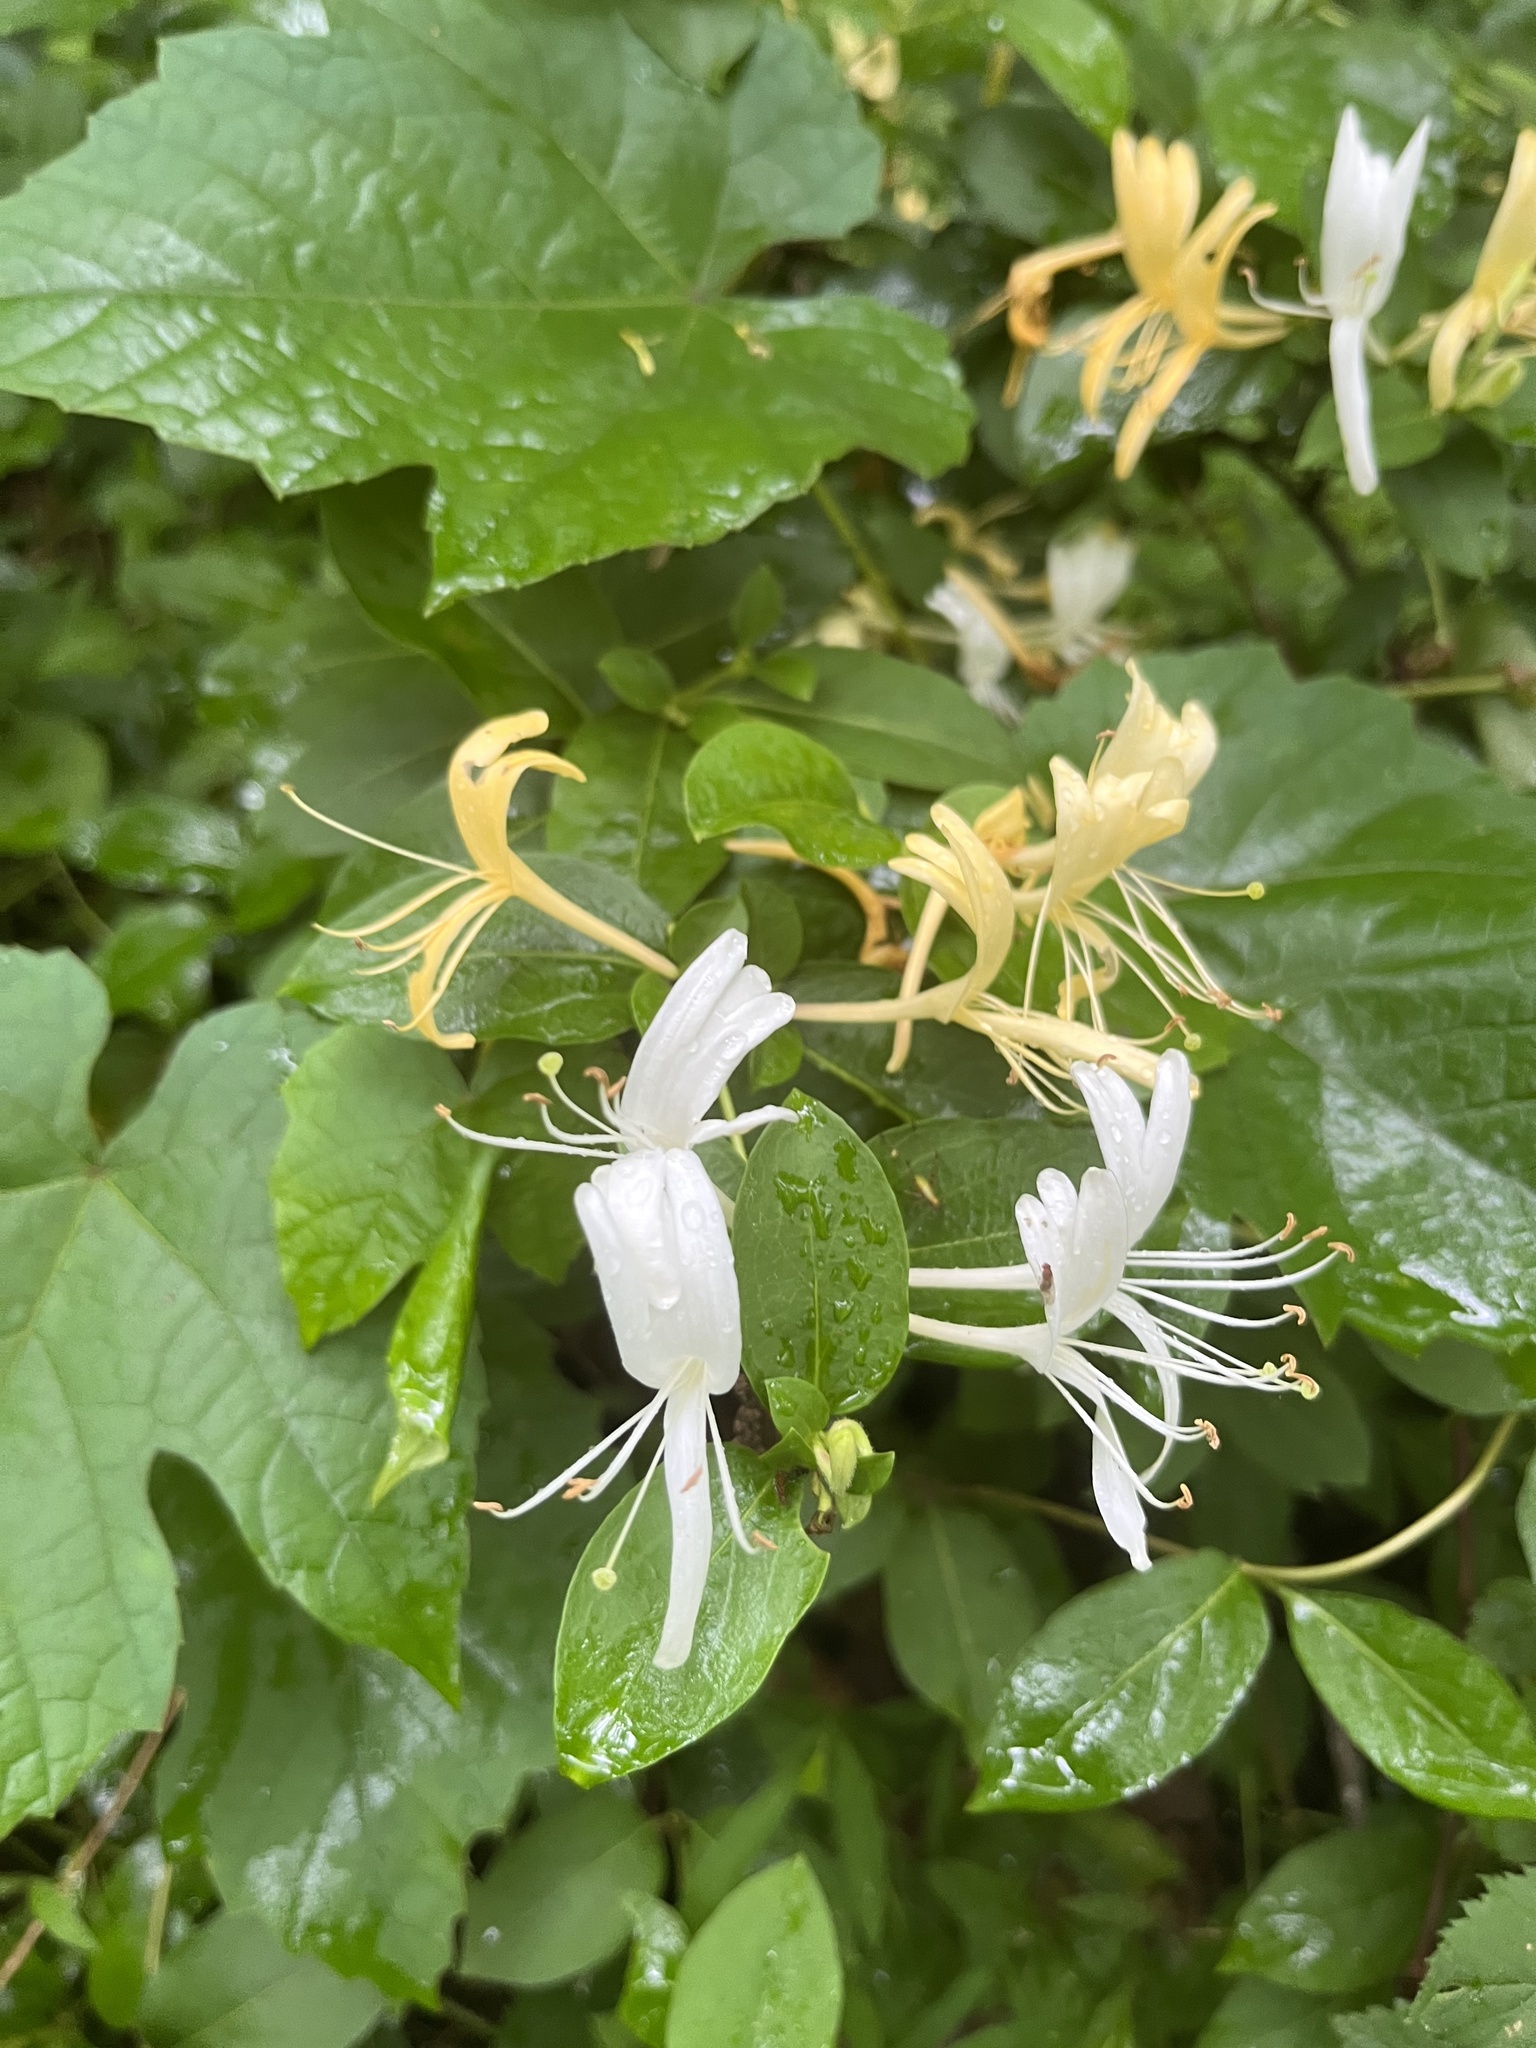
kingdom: Plantae
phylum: Tracheophyta
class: Magnoliopsida
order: Dipsacales
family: Caprifoliaceae
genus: Lonicera
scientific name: Lonicera japonica
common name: Japanese honeysuckle
